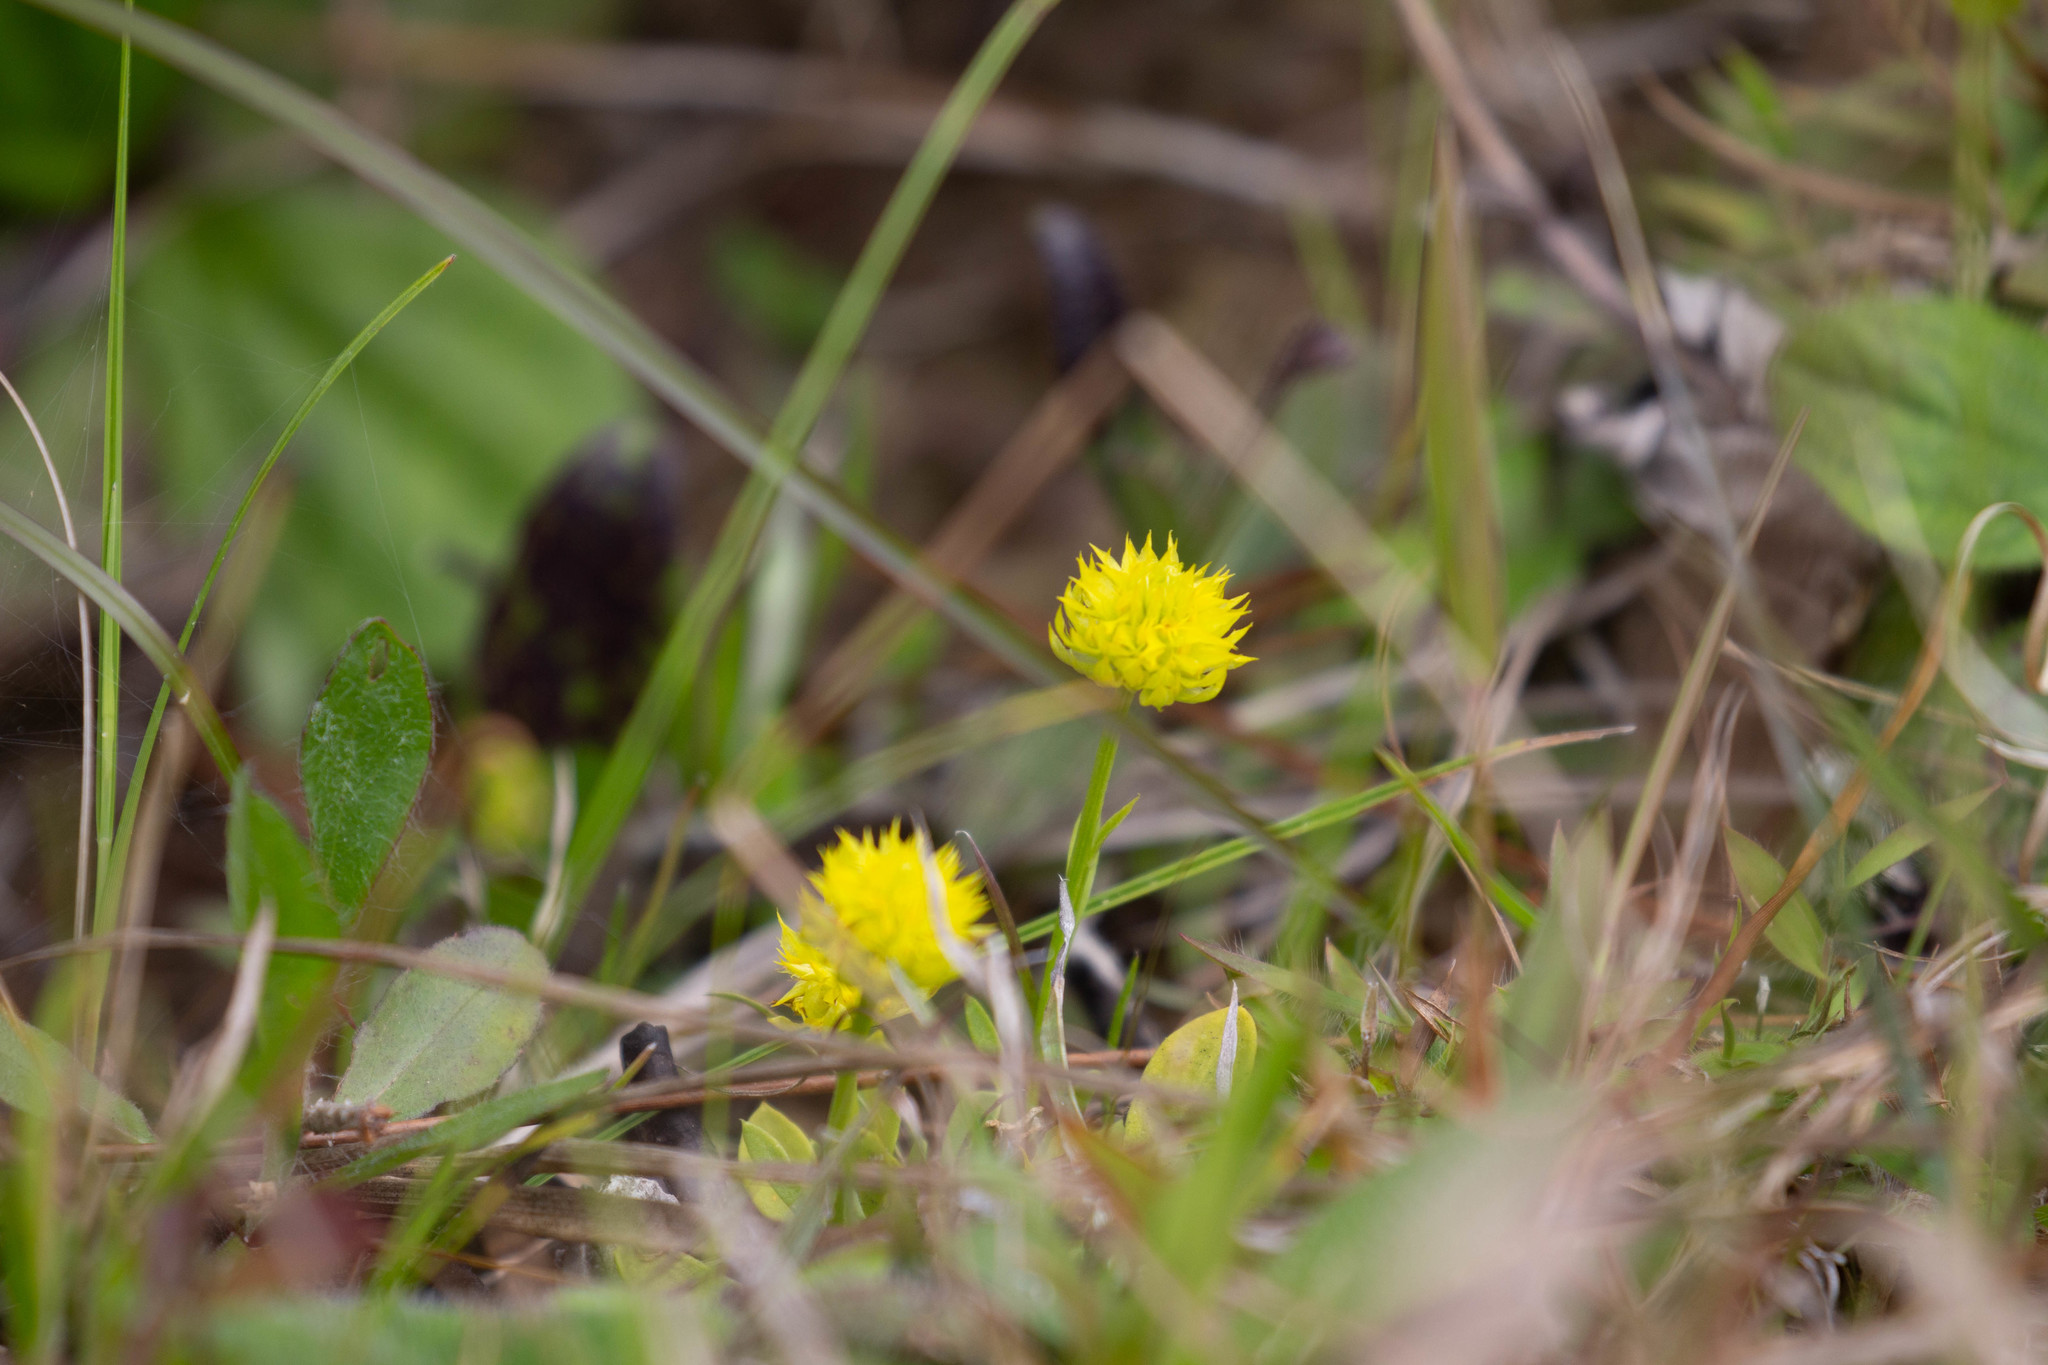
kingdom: Plantae
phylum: Tracheophyta
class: Magnoliopsida
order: Fabales
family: Polygalaceae
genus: Polygala
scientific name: Polygala nana
